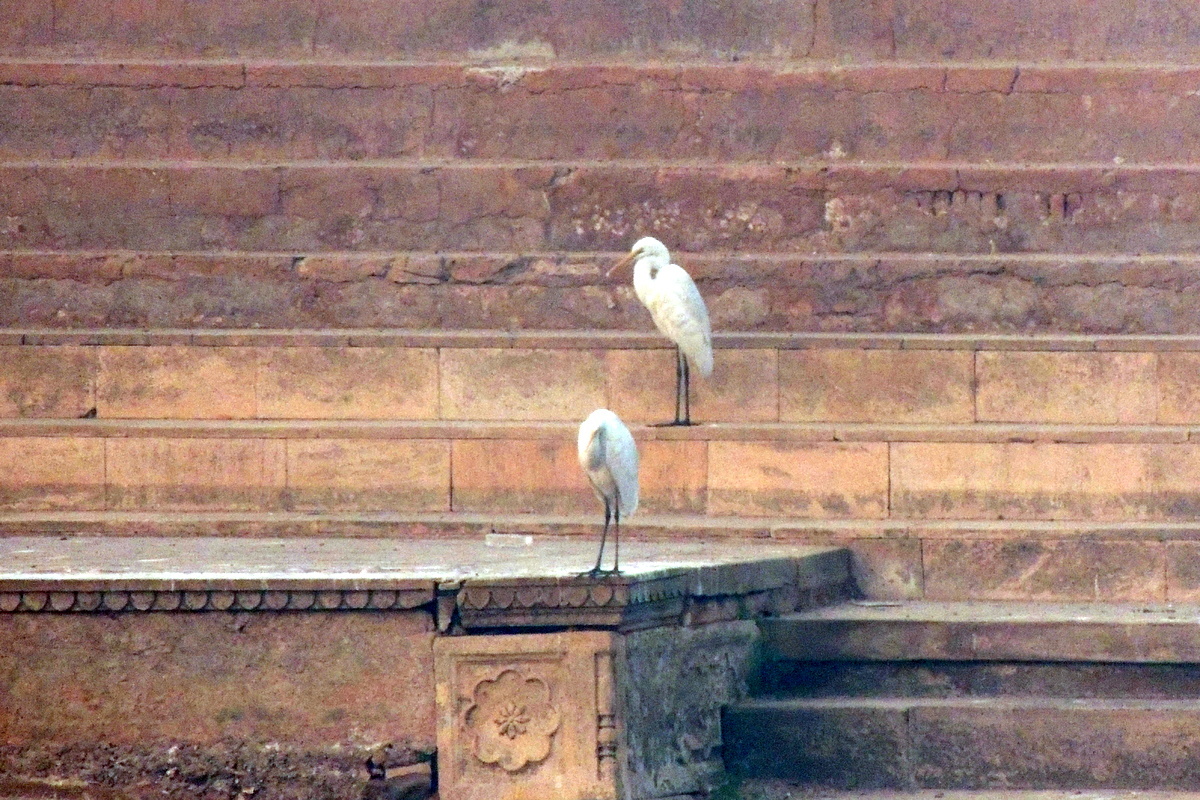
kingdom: Animalia
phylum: Chordata
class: Aves
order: Pelecaniformes
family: Ardeidae
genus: Egretta
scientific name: Egretta intermedia
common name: Intermediate egret
